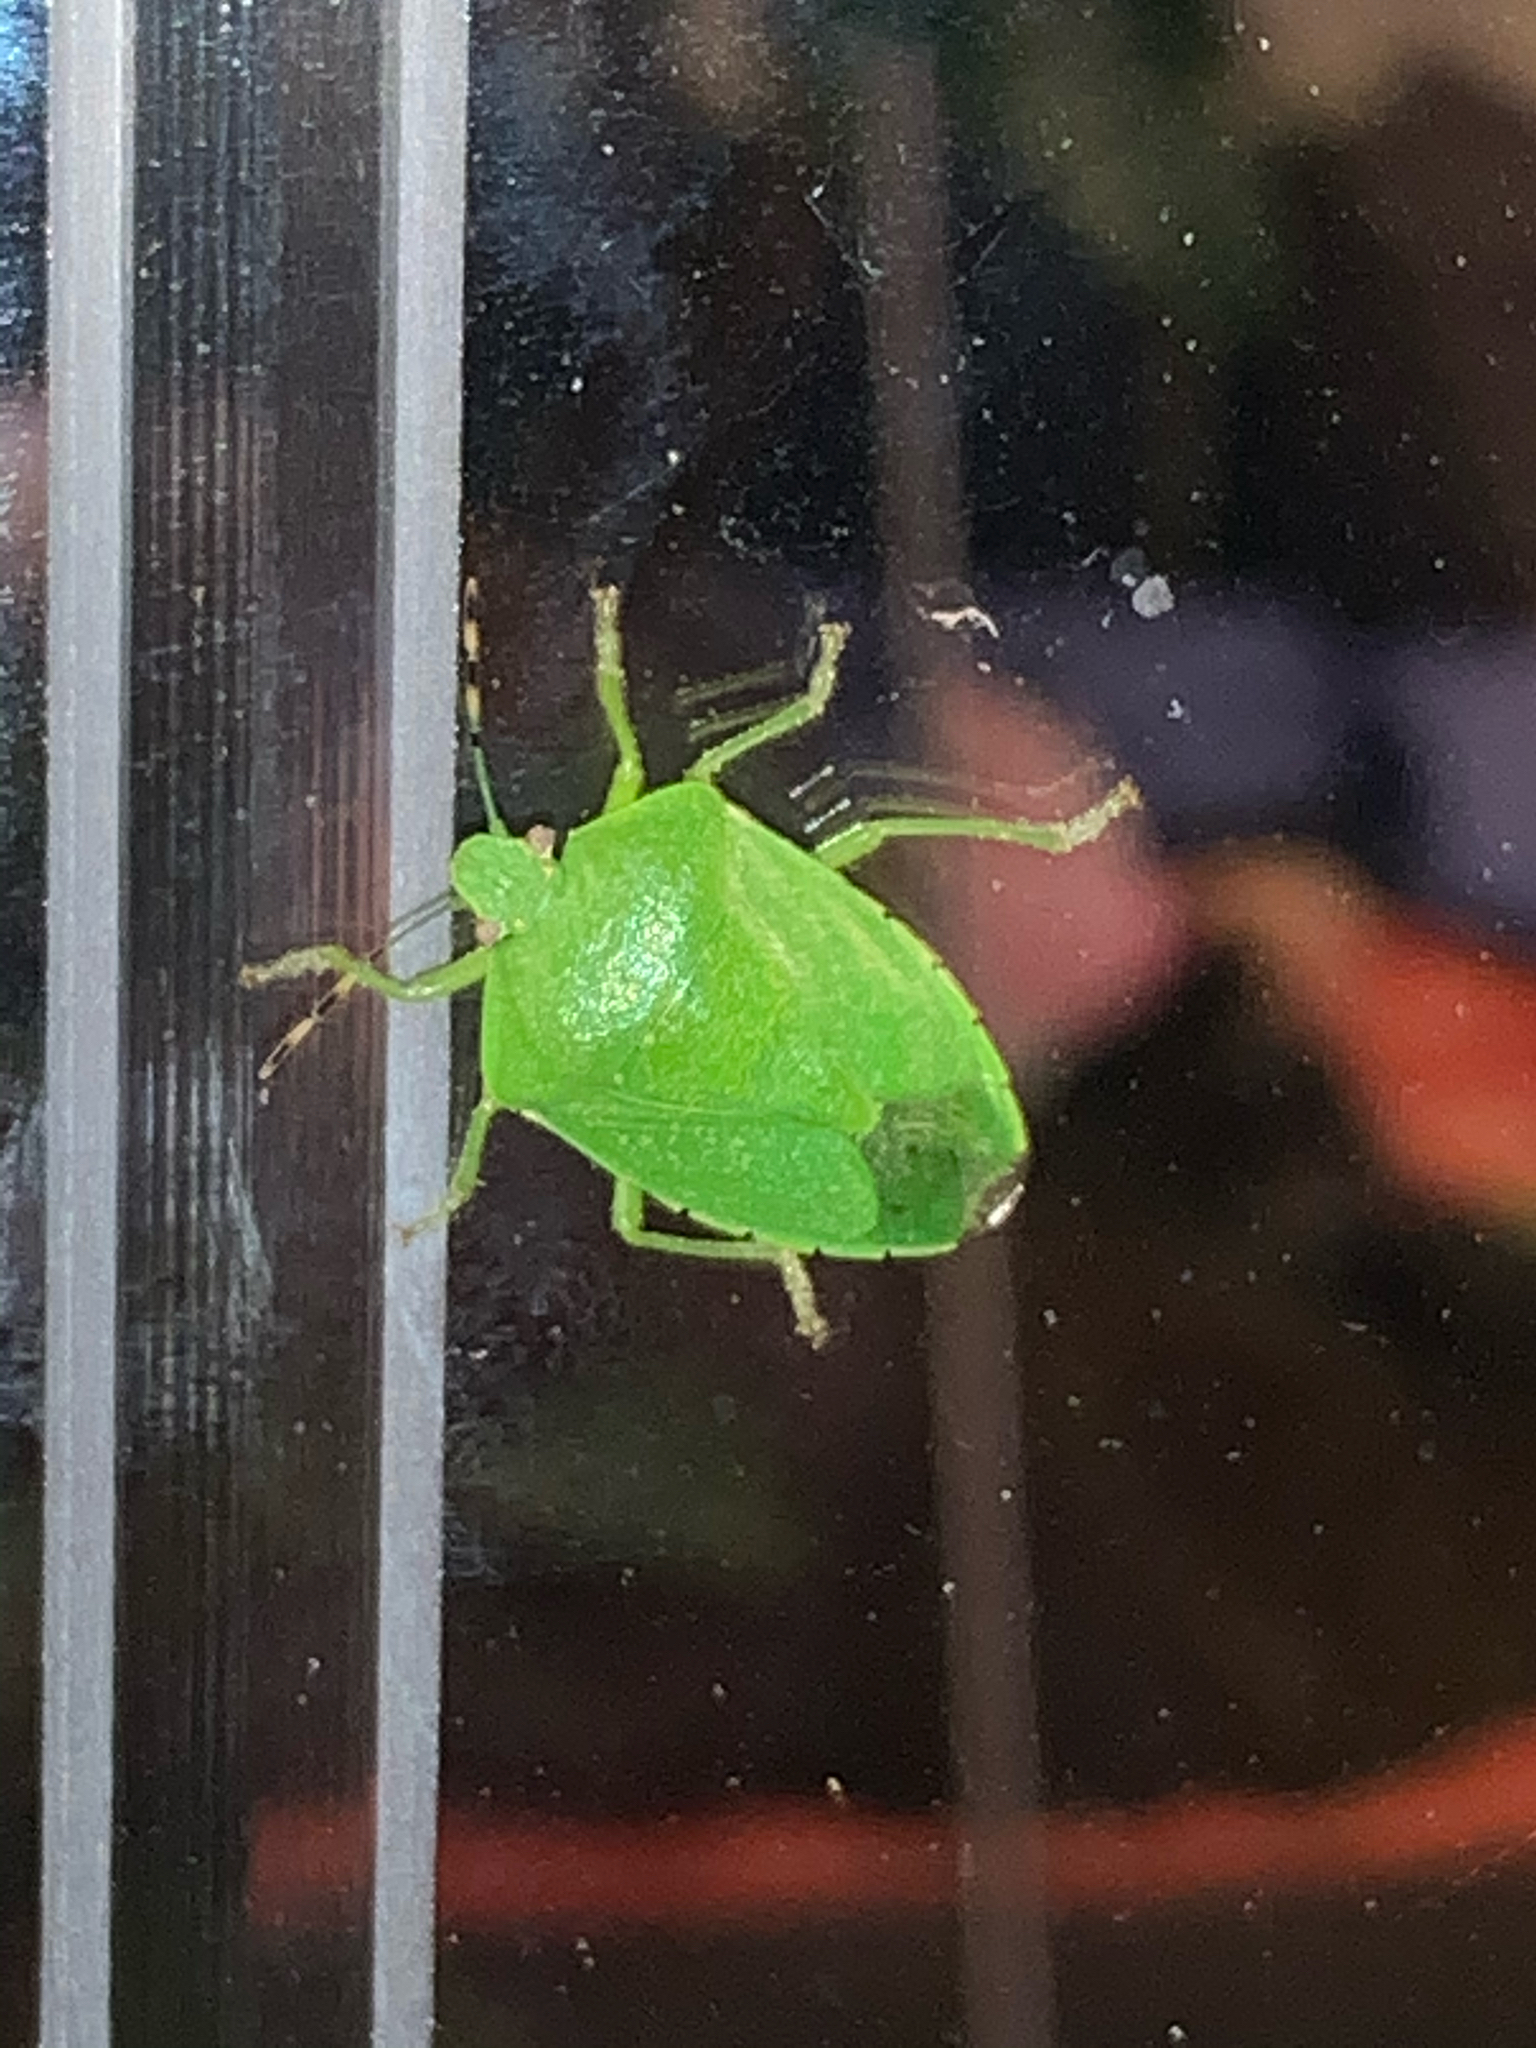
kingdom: Animalia
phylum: Arthropoda
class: Insecta
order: Hemiptera
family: Pentatomidae
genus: Chinavia
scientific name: Chinavia hilaris
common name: Green stink bug
